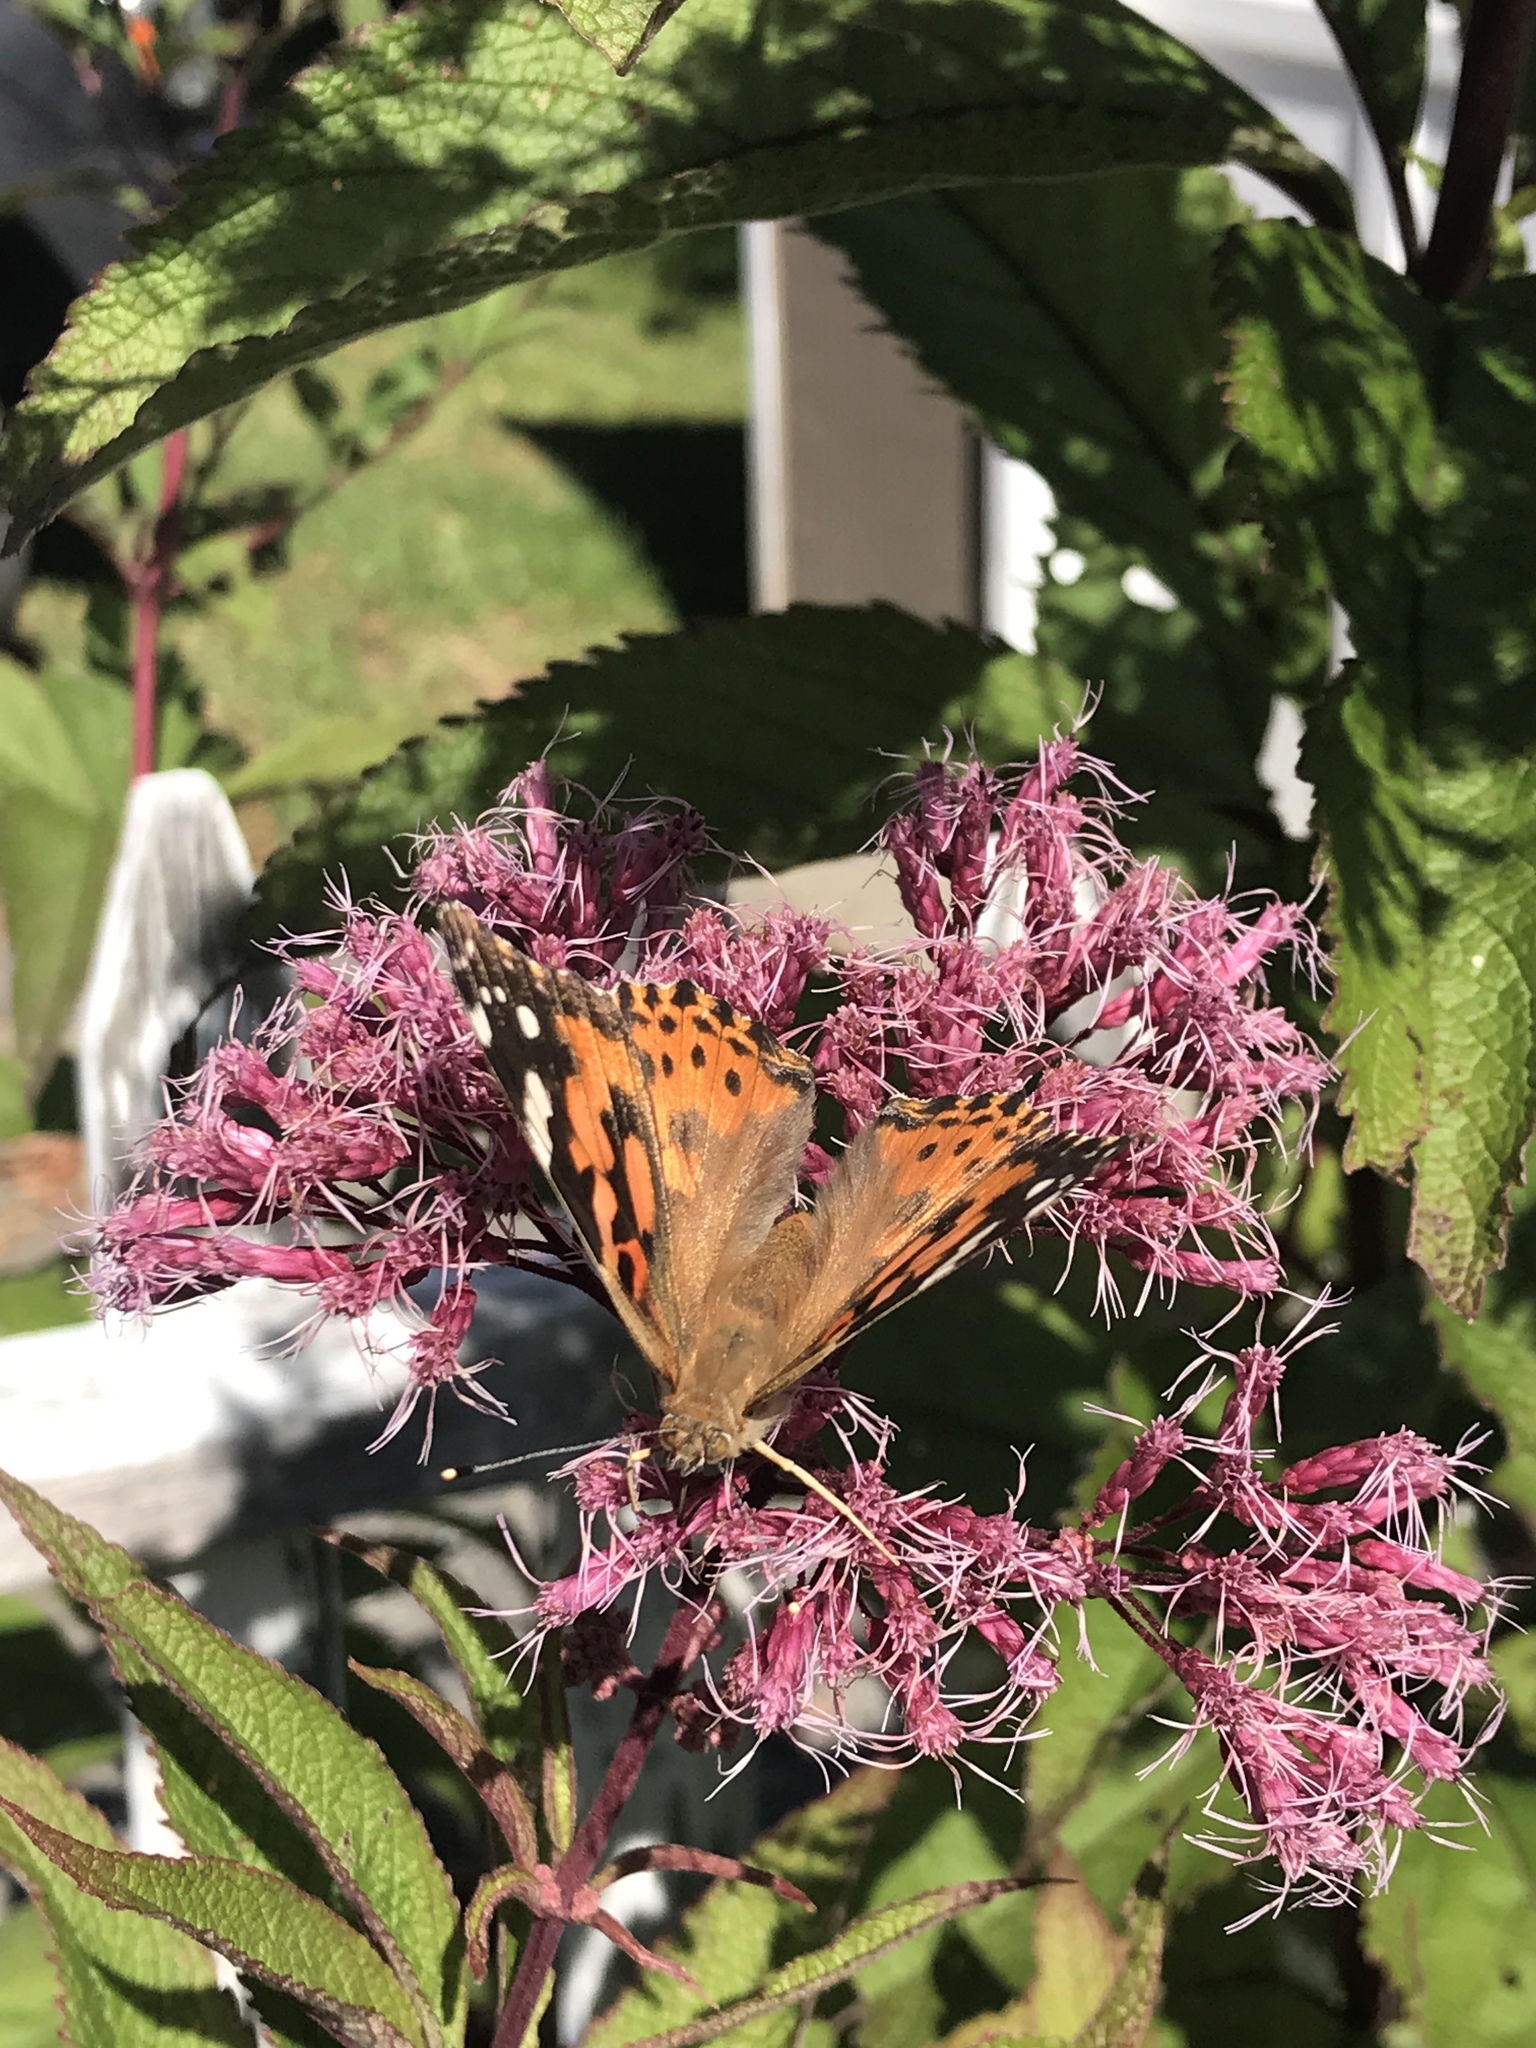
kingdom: Animalia
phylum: Arthropoda
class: Insecta
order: Lepidoptera
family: Nymphalidae
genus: Vanessa
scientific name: Vanessa cardui
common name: Painted lady
